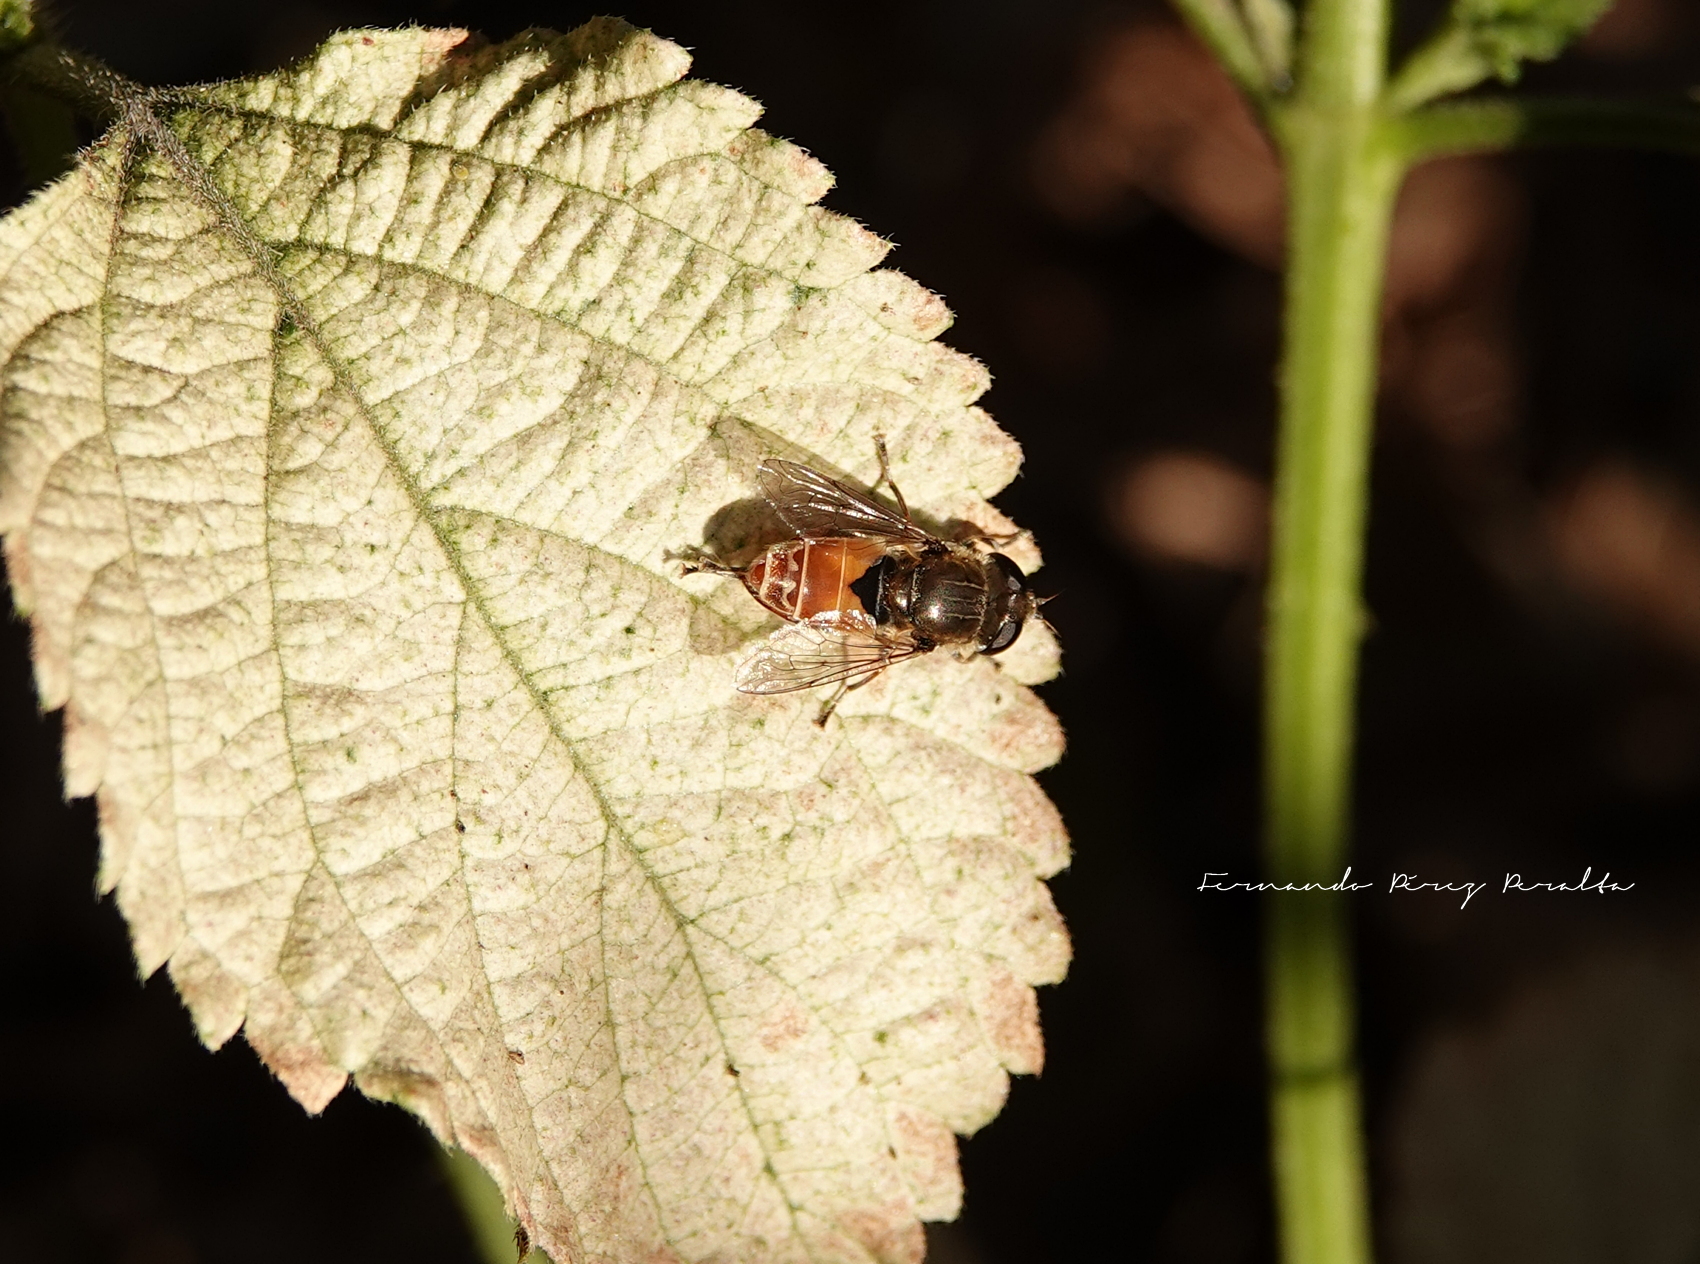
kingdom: Animalia
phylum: Arthropoda
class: Insecta
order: Diptera
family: Syrphidae
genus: Asemosyrphus
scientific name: Asemosyrphus
